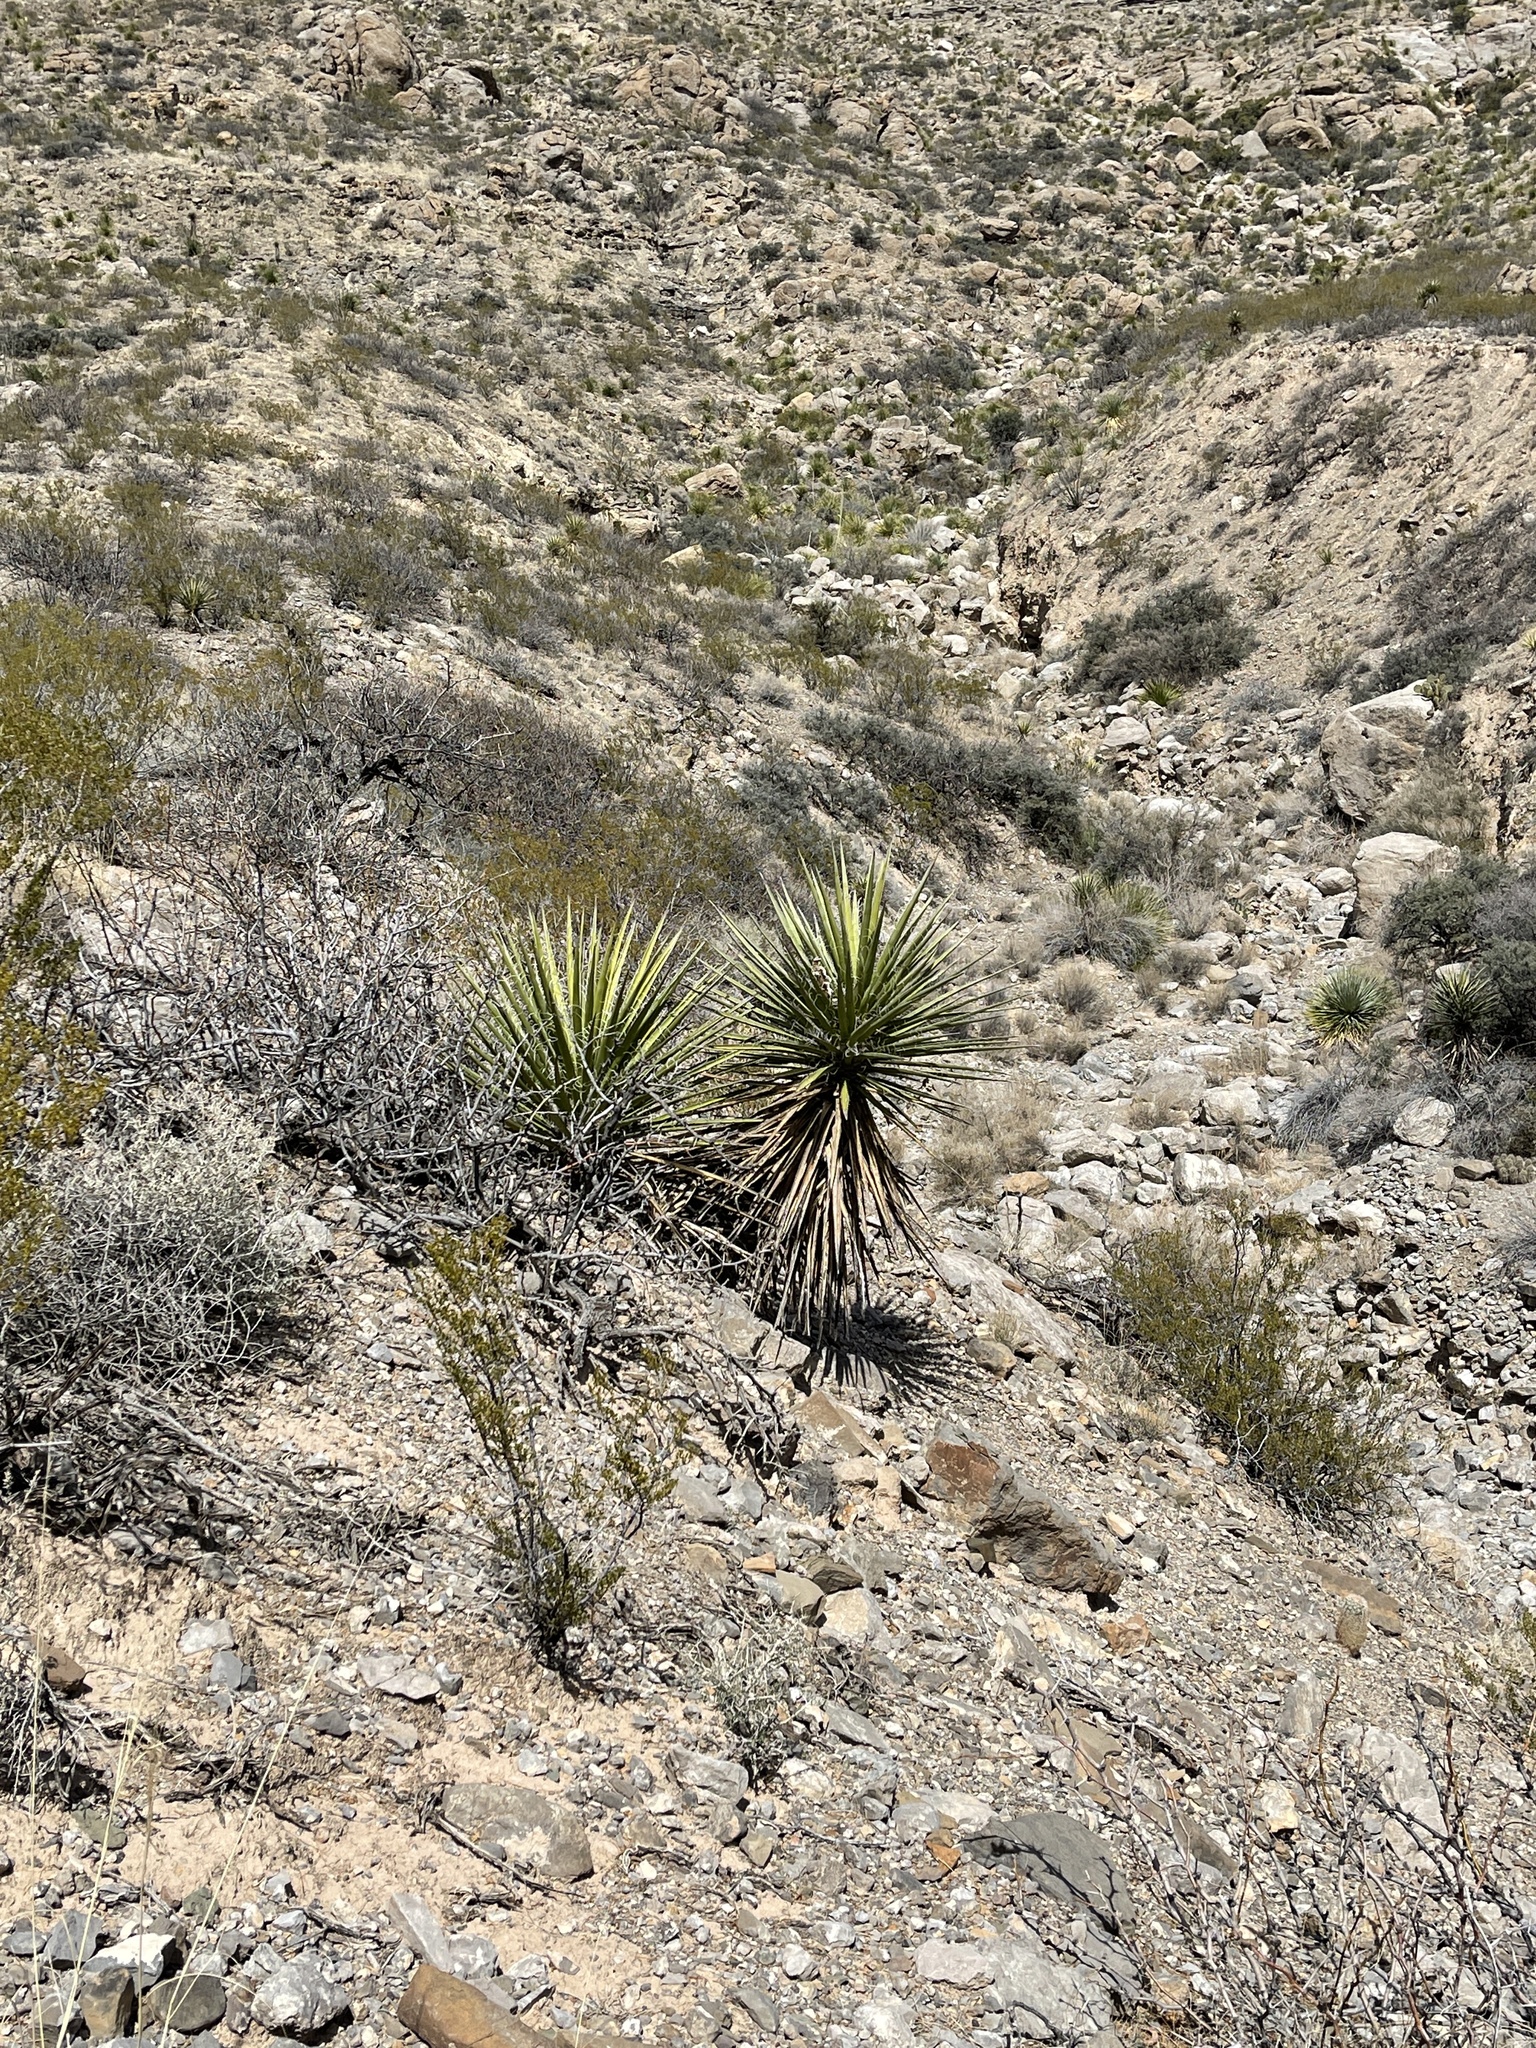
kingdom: Plantae
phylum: Tracheophyta
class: Liliopsida
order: Asparagales
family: Asparagaceae
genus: Yucca
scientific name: Yucca treculiana
